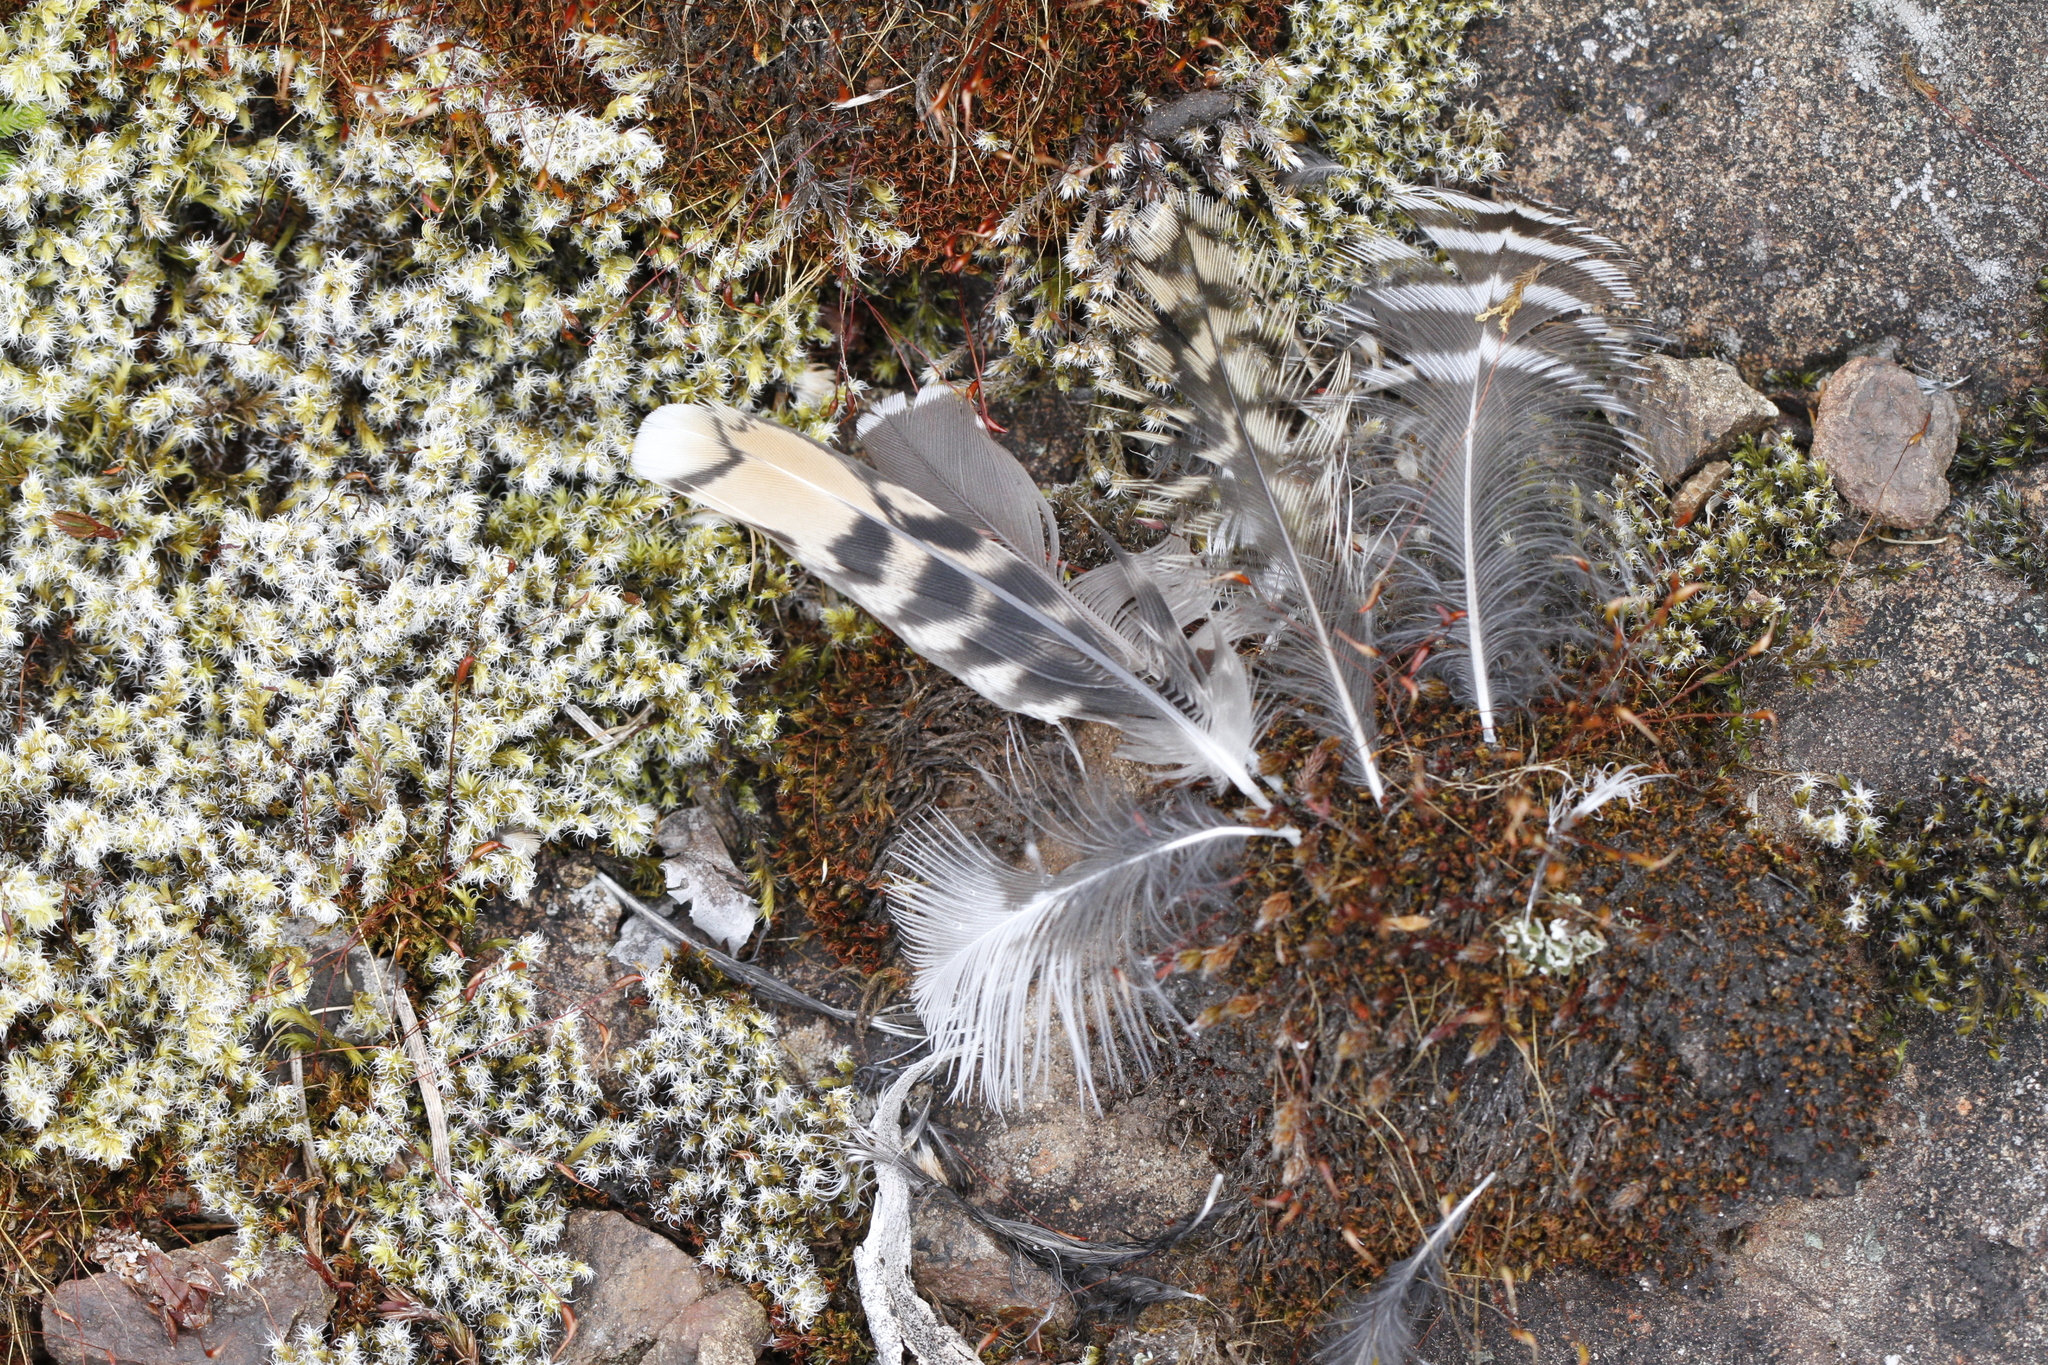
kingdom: Animalia
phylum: Chordata
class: Aves
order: Charadriiformes
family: Scolopacidae
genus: Gallinago
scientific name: Gallinago delicata
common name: Wilson's snipe
